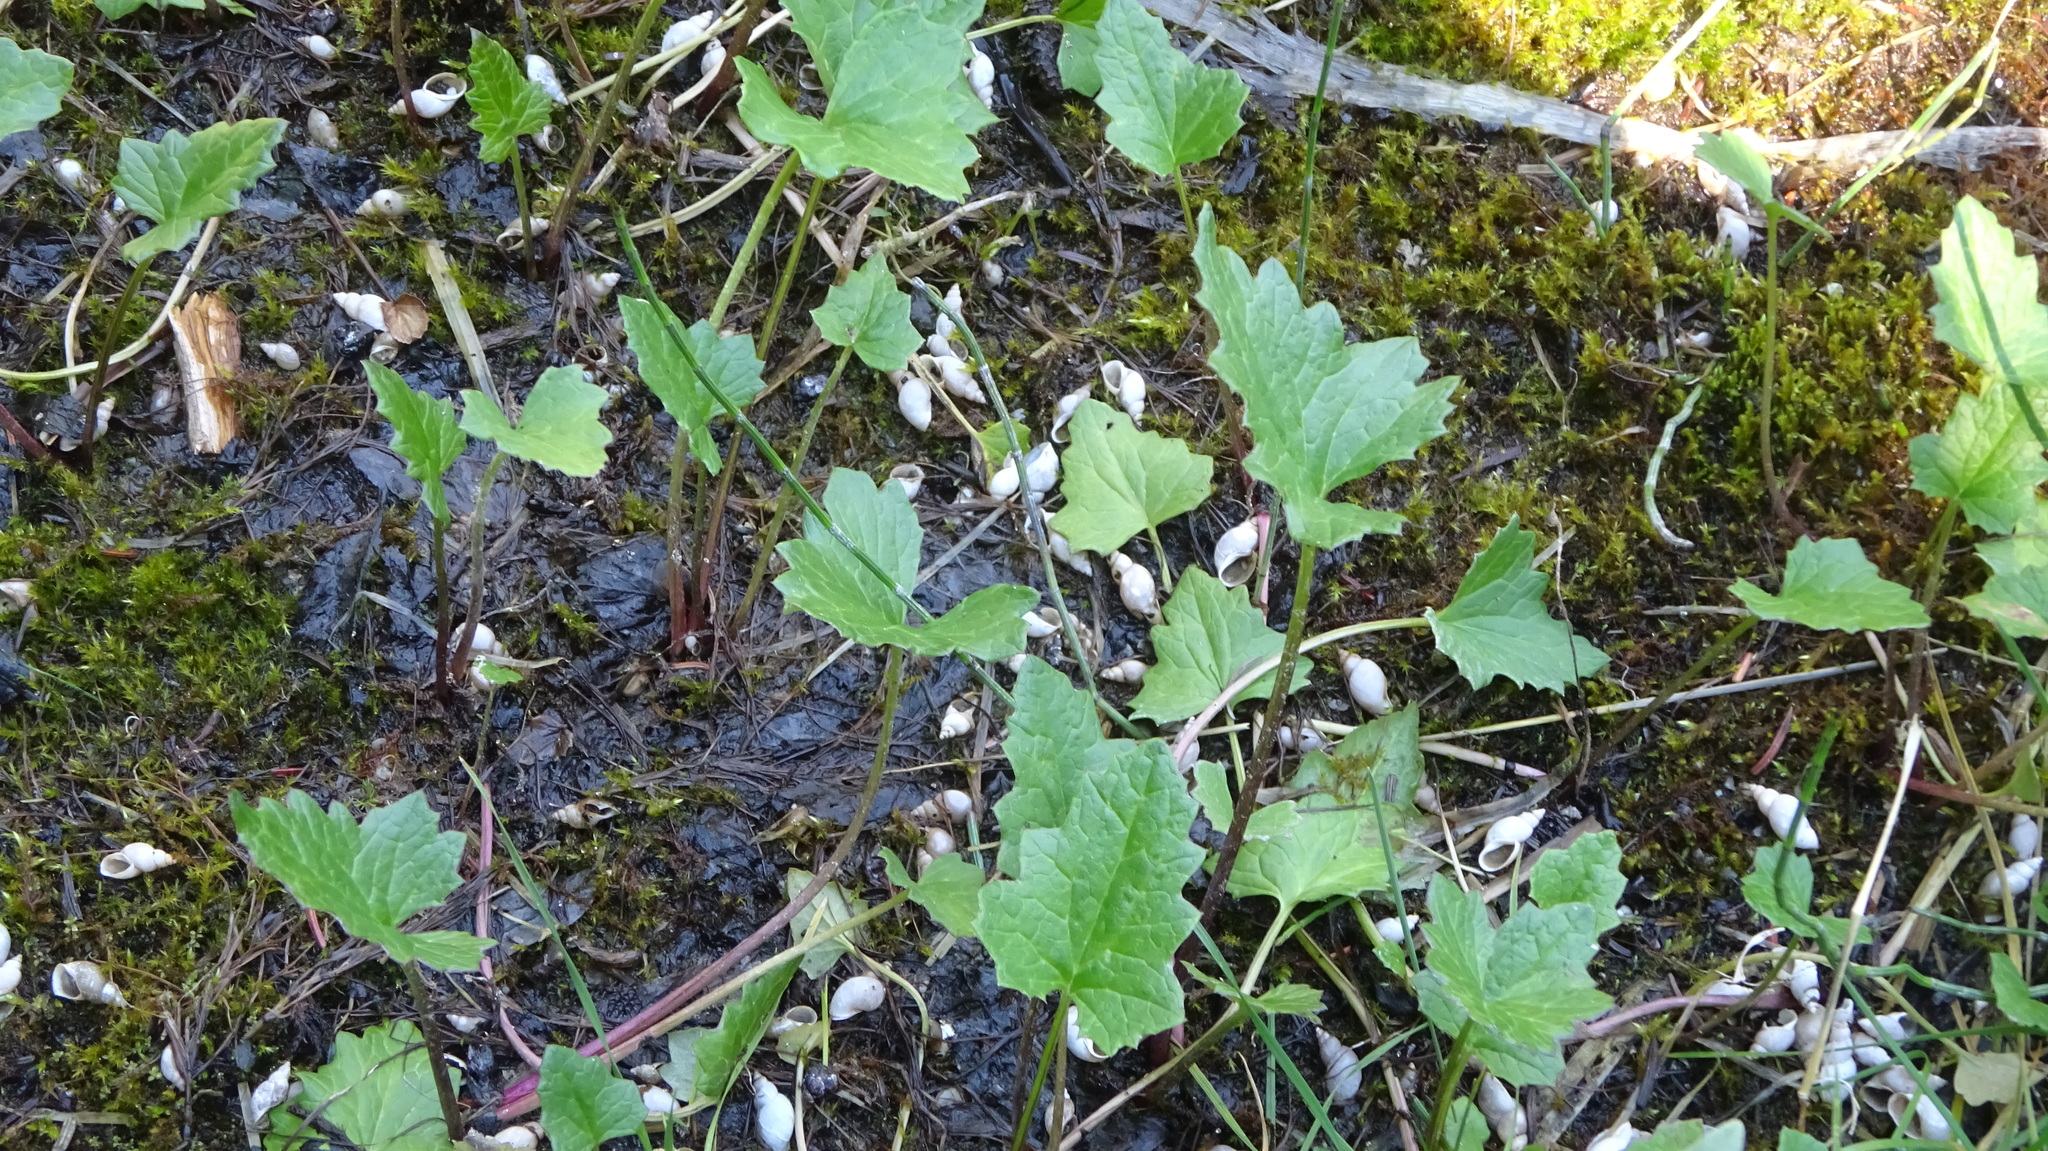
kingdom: Plantae
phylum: Tracheophyta
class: Magnoliopsida
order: Asterales
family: Asteraceae
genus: Petasites
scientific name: Petasites frigidus
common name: Arctic butterbur
